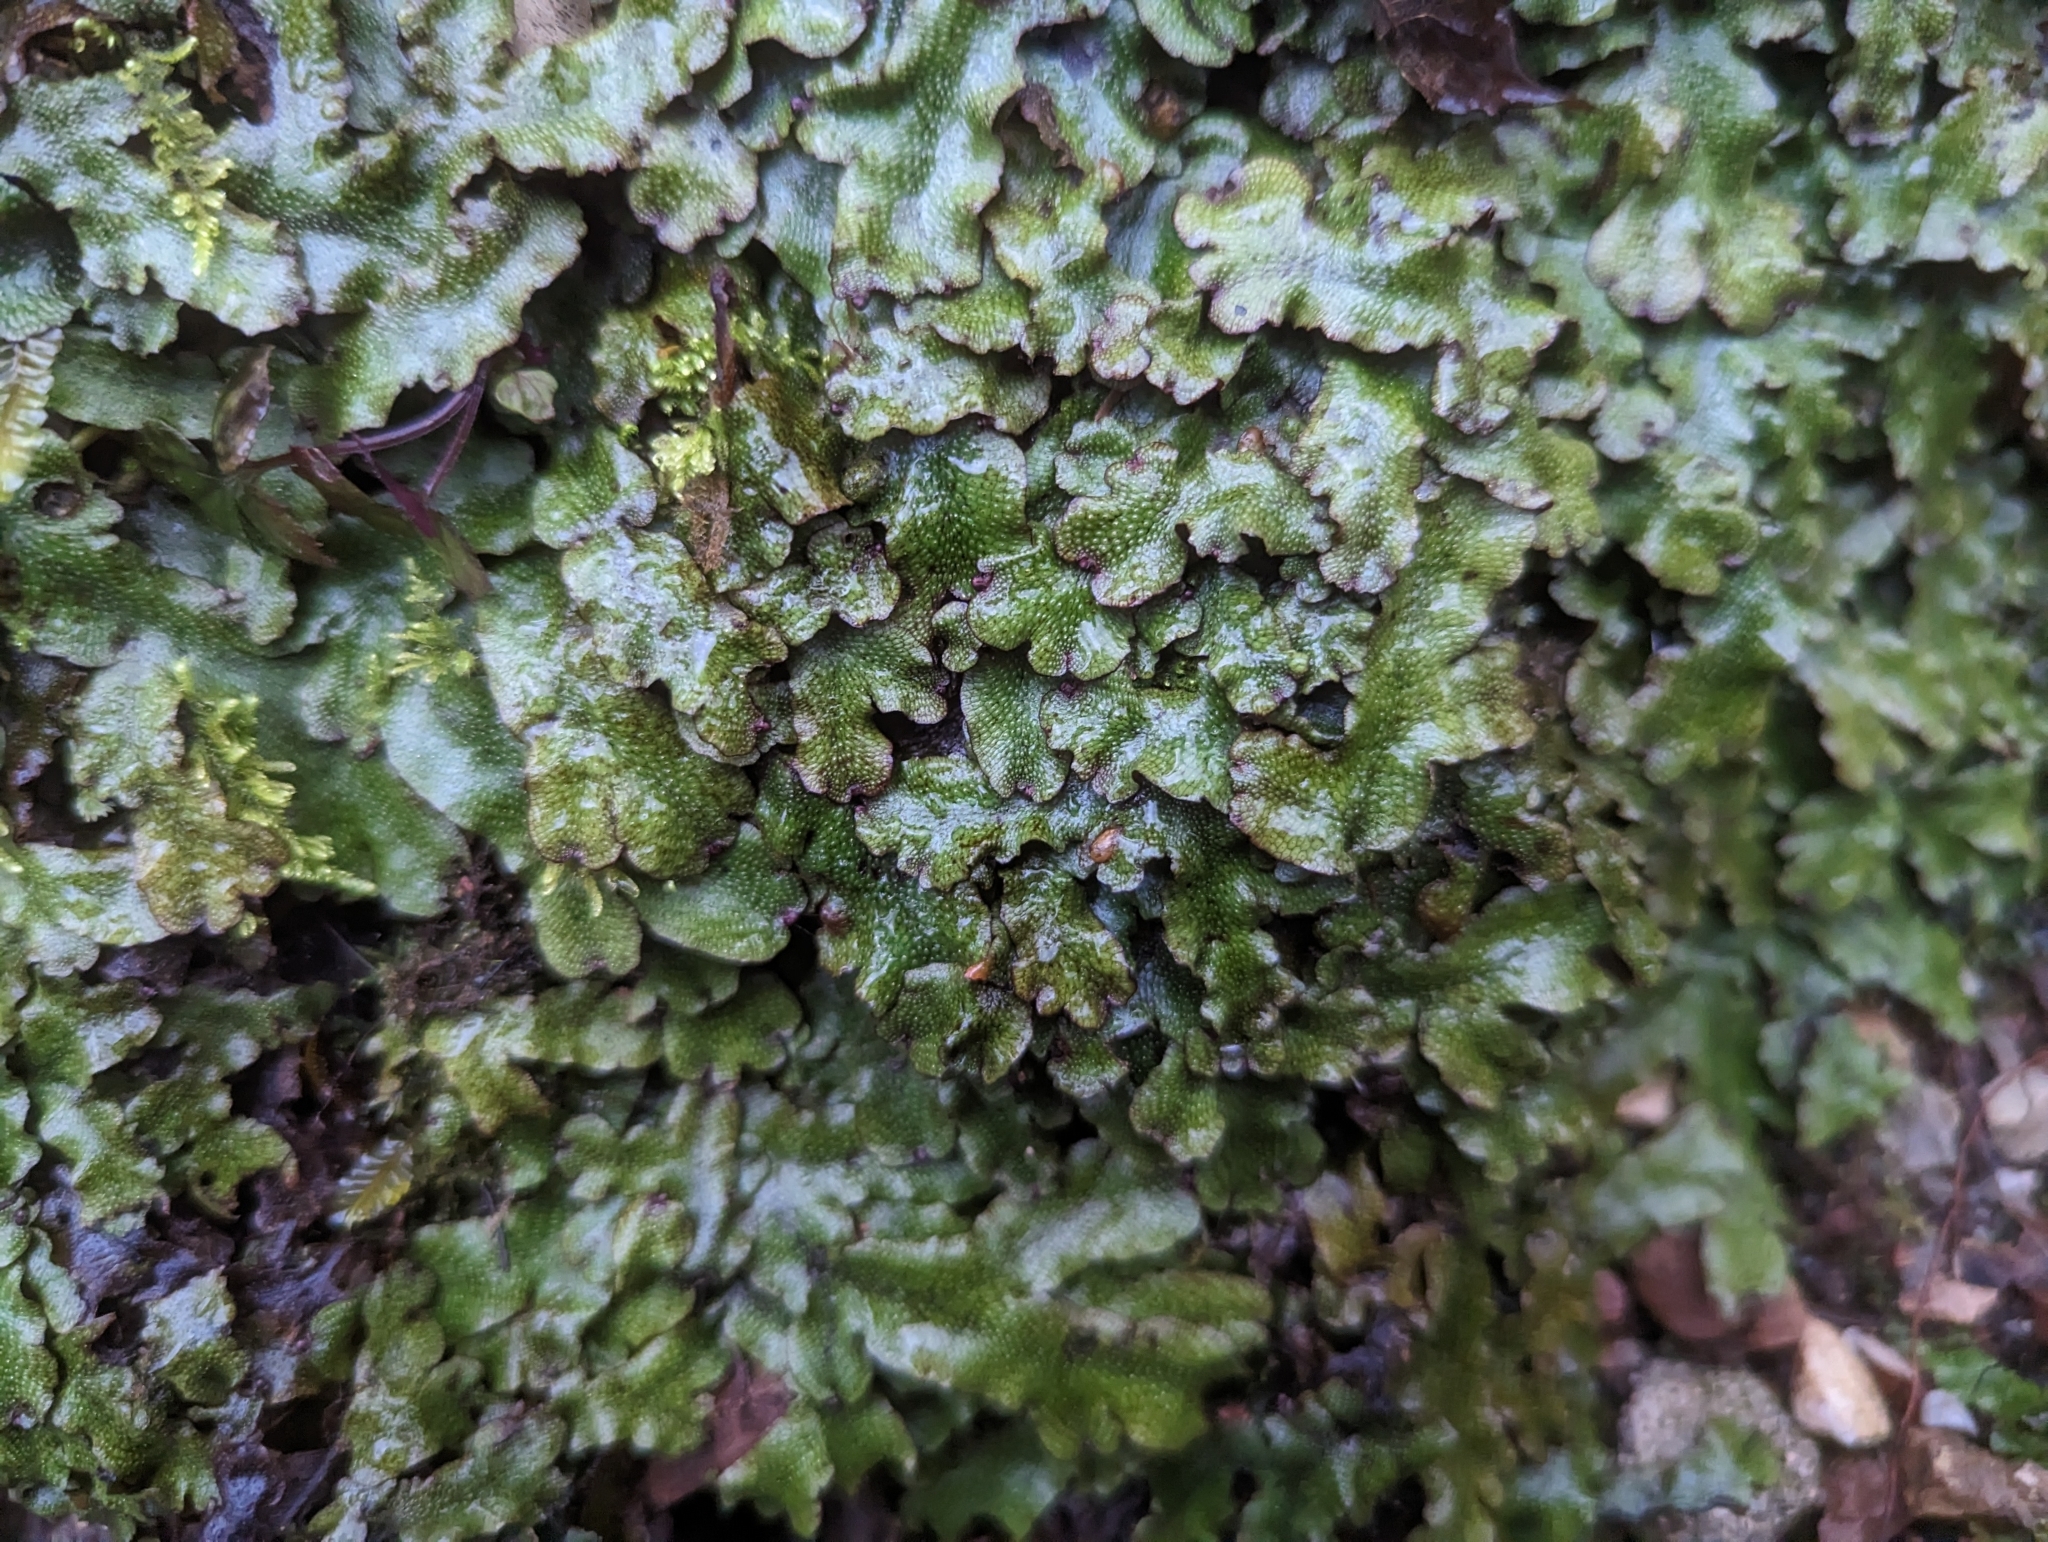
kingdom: Plantae
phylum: Marchantiophyta
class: Marchantiopsida
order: Marchantiales
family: Conocephalaceae
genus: Conocephalum
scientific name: Conocephalum salebrosum
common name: Cat-tongue liverwort
